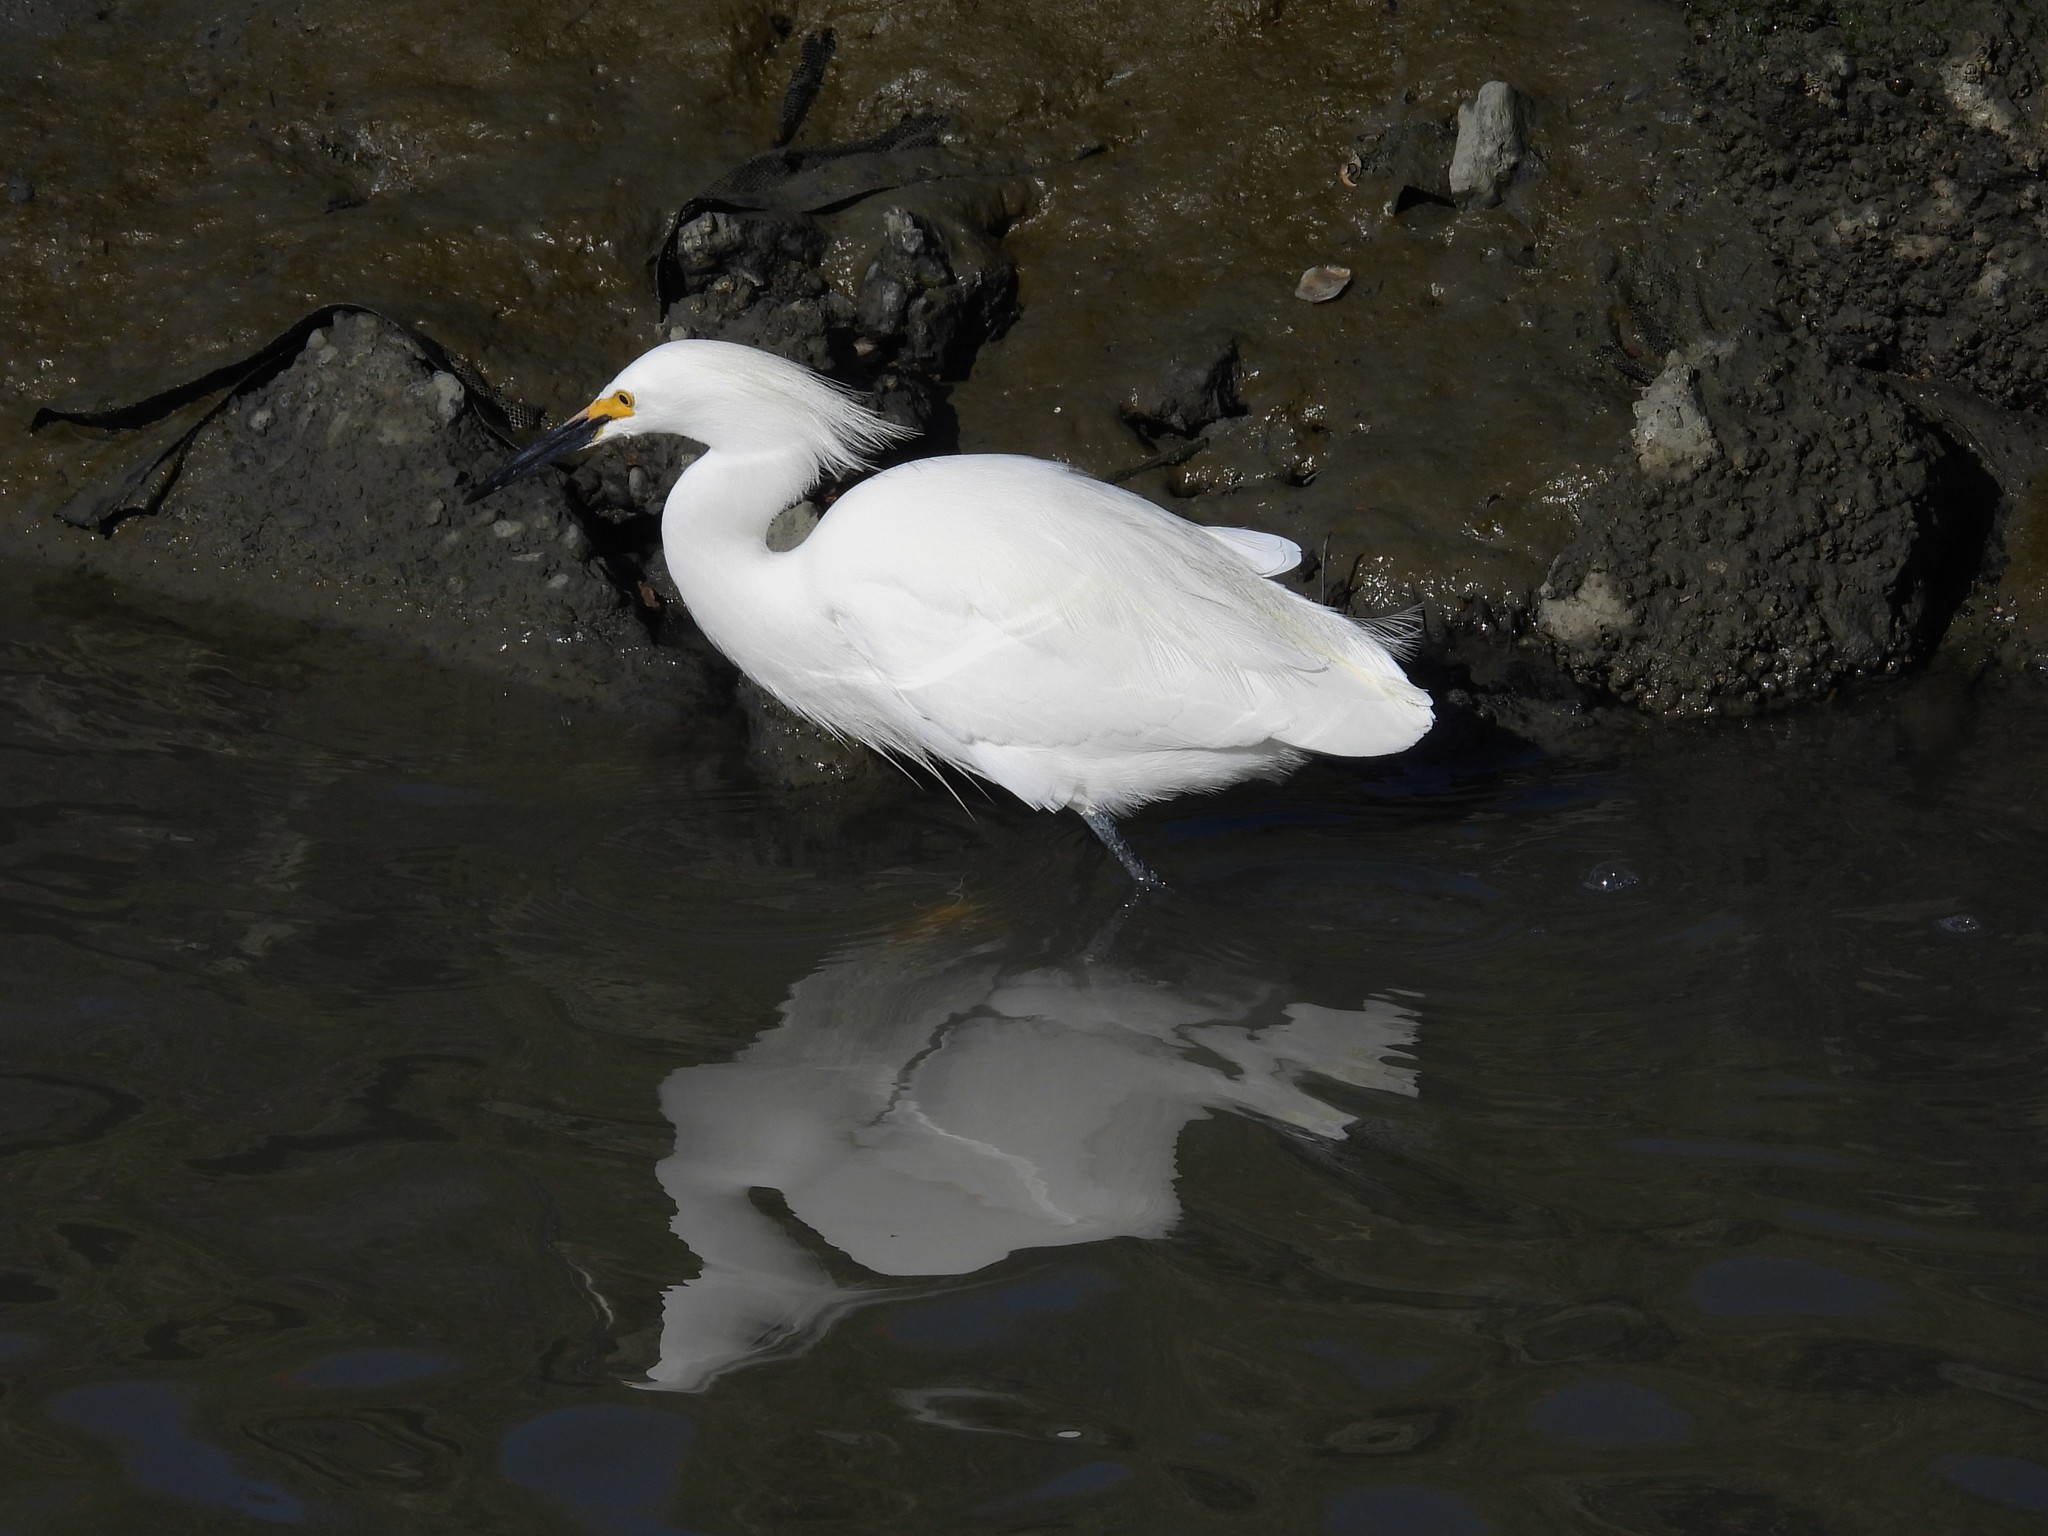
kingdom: Animalia
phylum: Chordata
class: Aves
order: Pelecaniformes
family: Ardeidae
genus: Egretta
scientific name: Egretta thula
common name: Snowy egret
